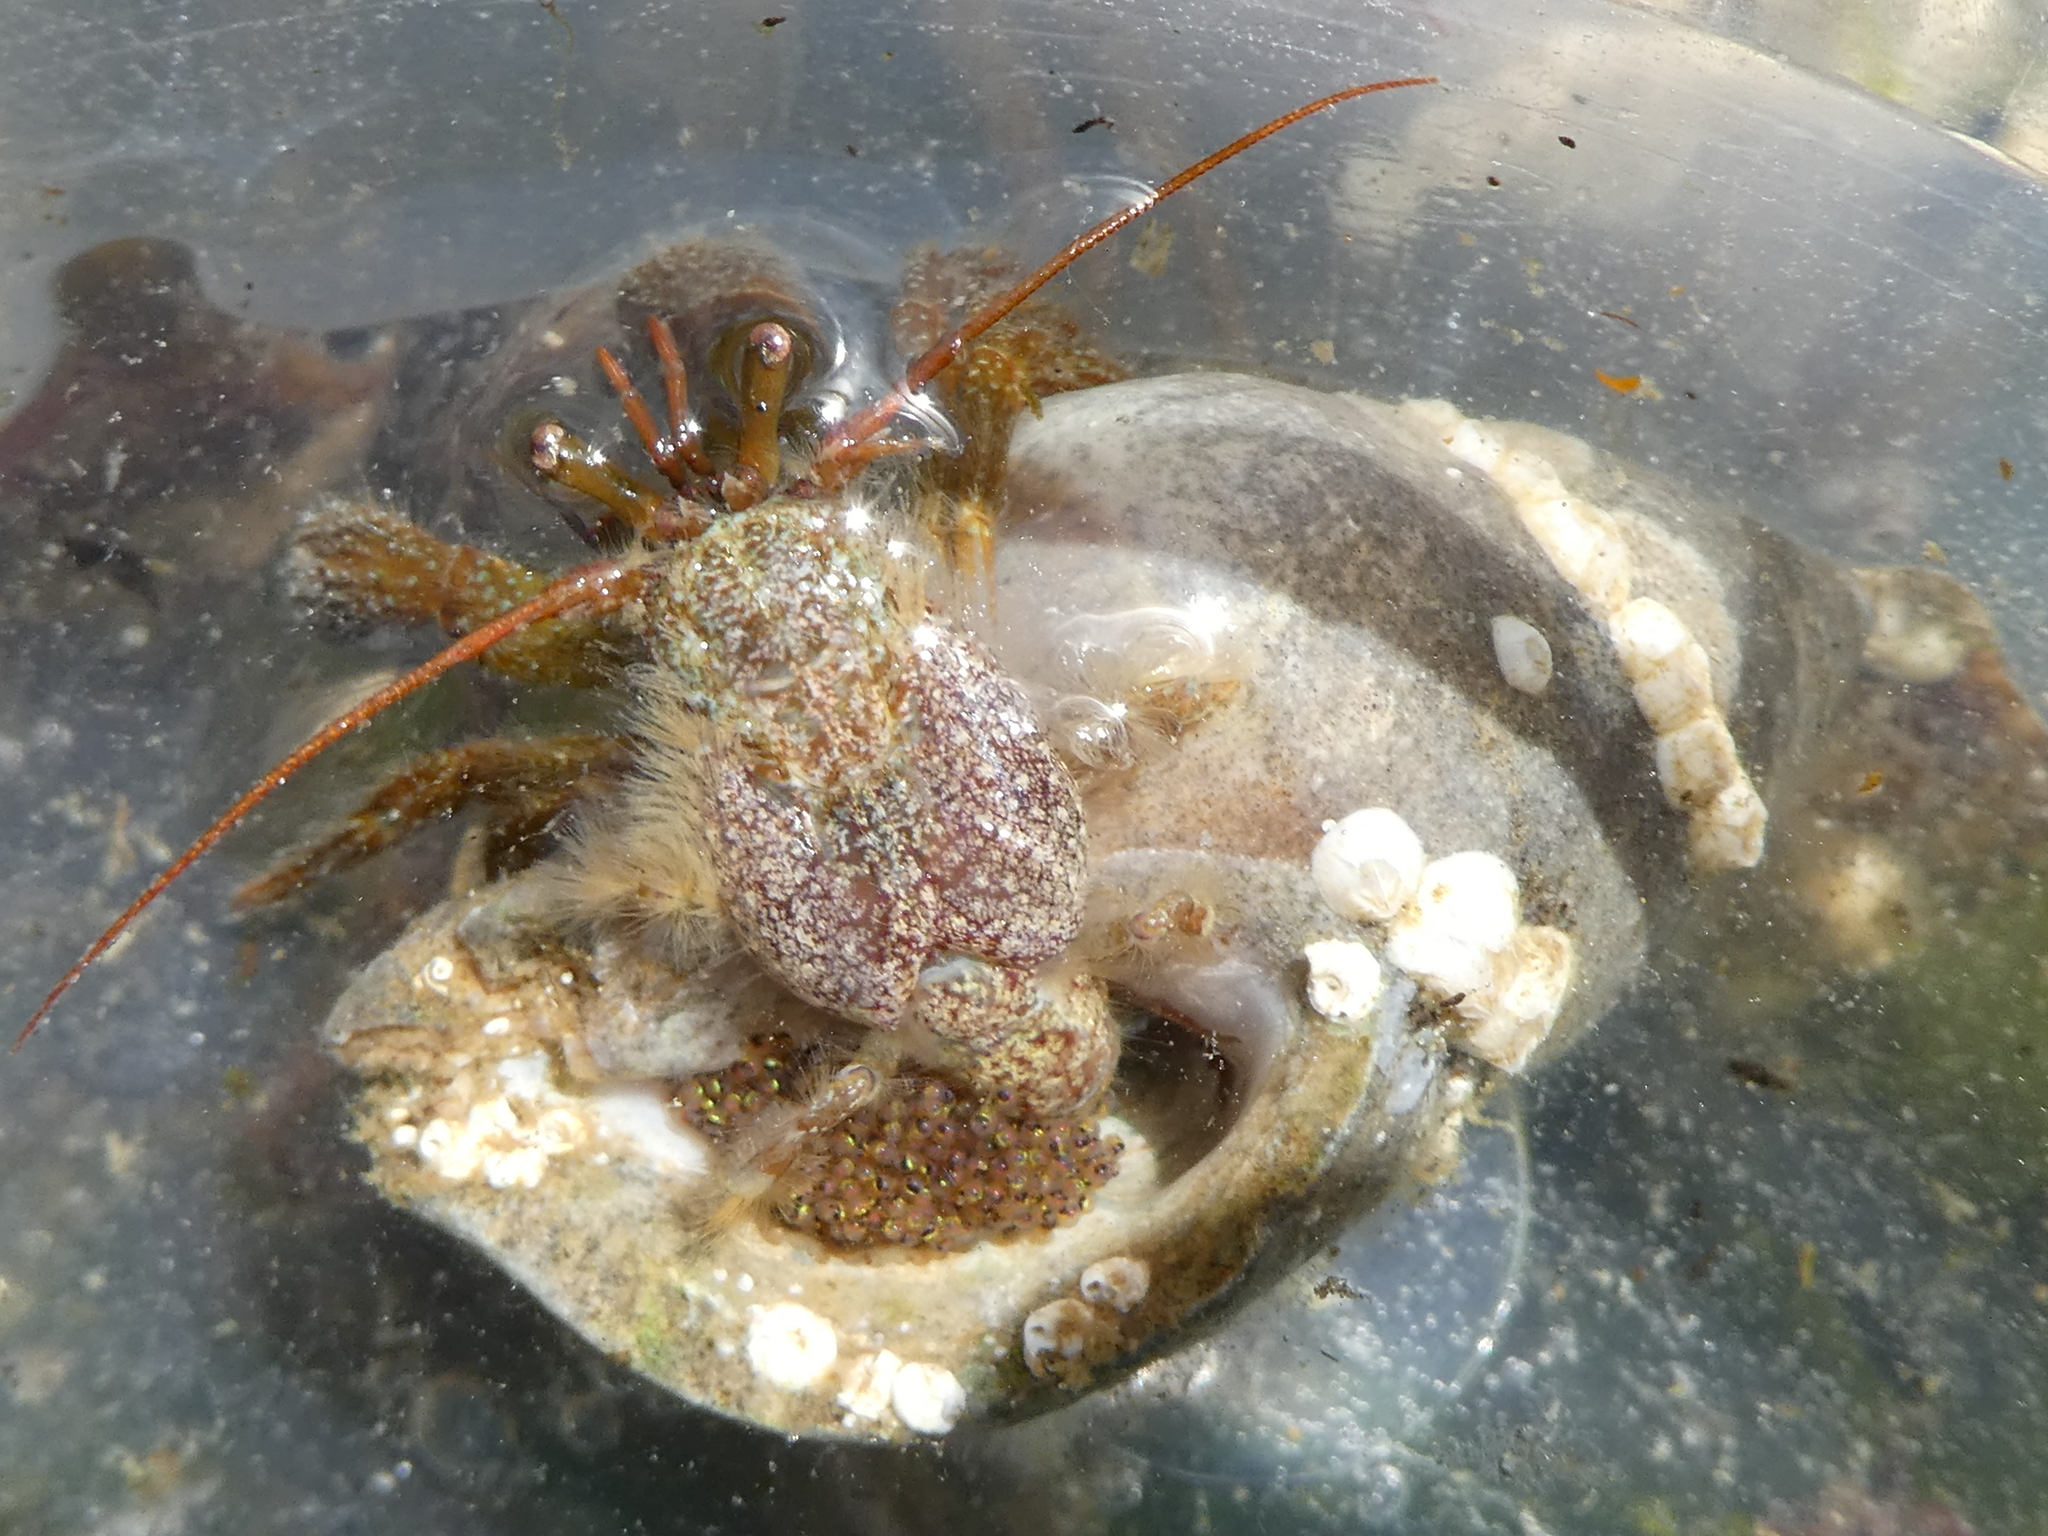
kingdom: Animalia
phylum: Arthropoda
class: Malacostraca
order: Decapoda
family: Paguridae
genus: Pagurus
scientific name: Pagurus granosimanus
